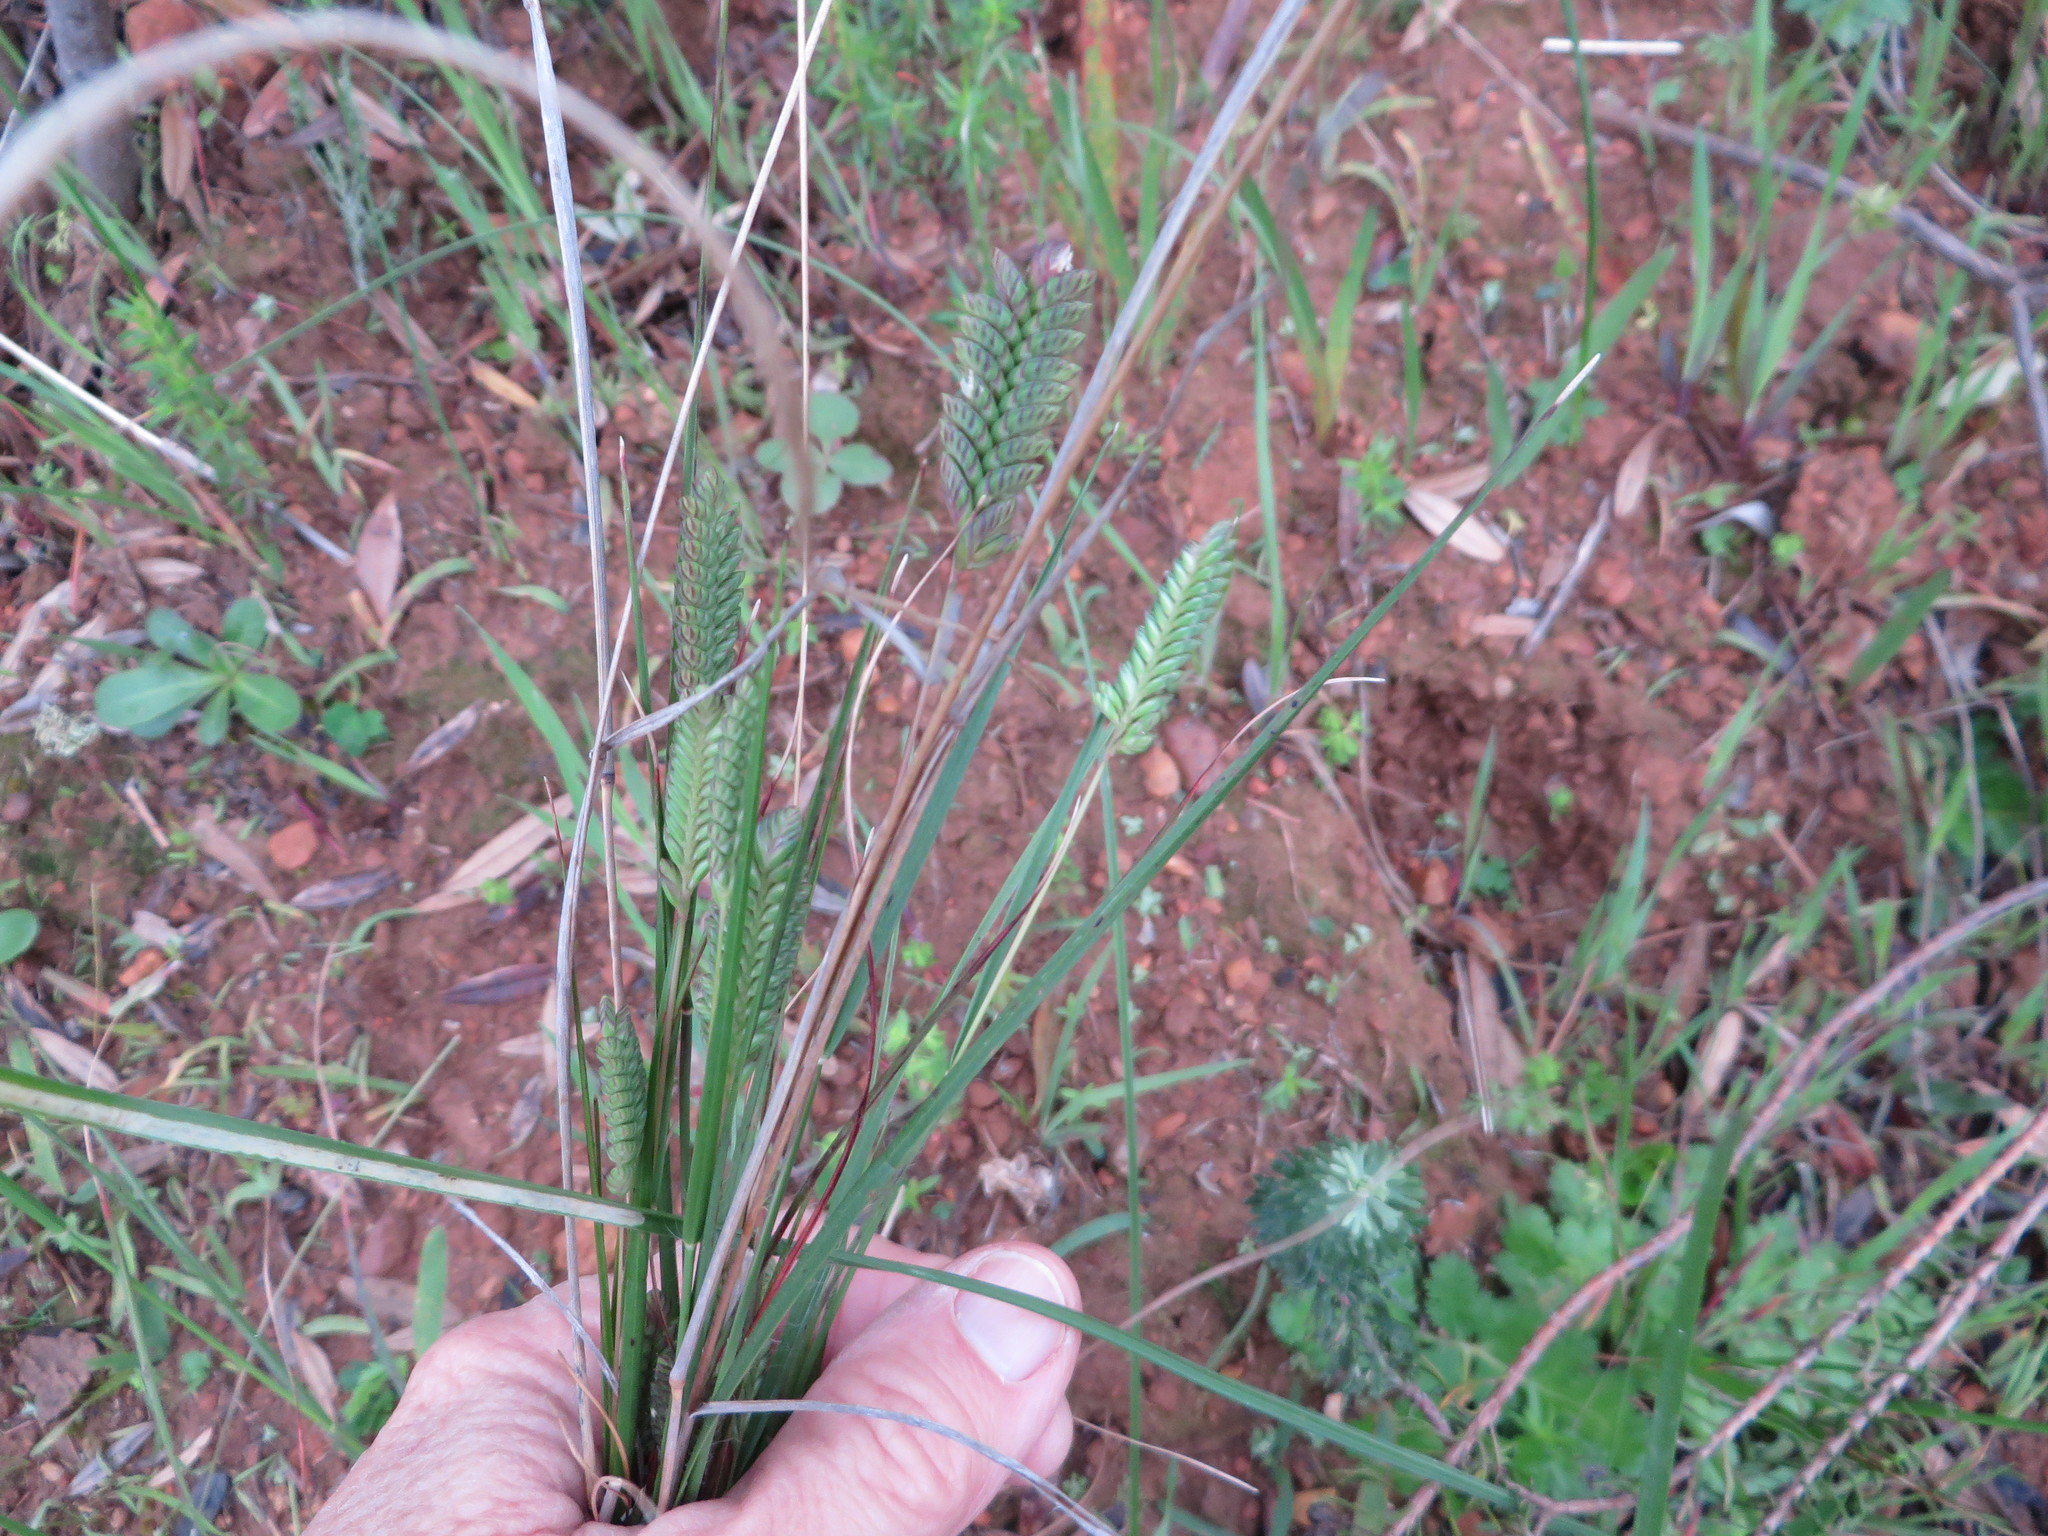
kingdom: Plantae
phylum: Tracheophyta
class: Liliopsida
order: Poales
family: Poaceae
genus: Tribolium
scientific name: Tribolium uniolae
